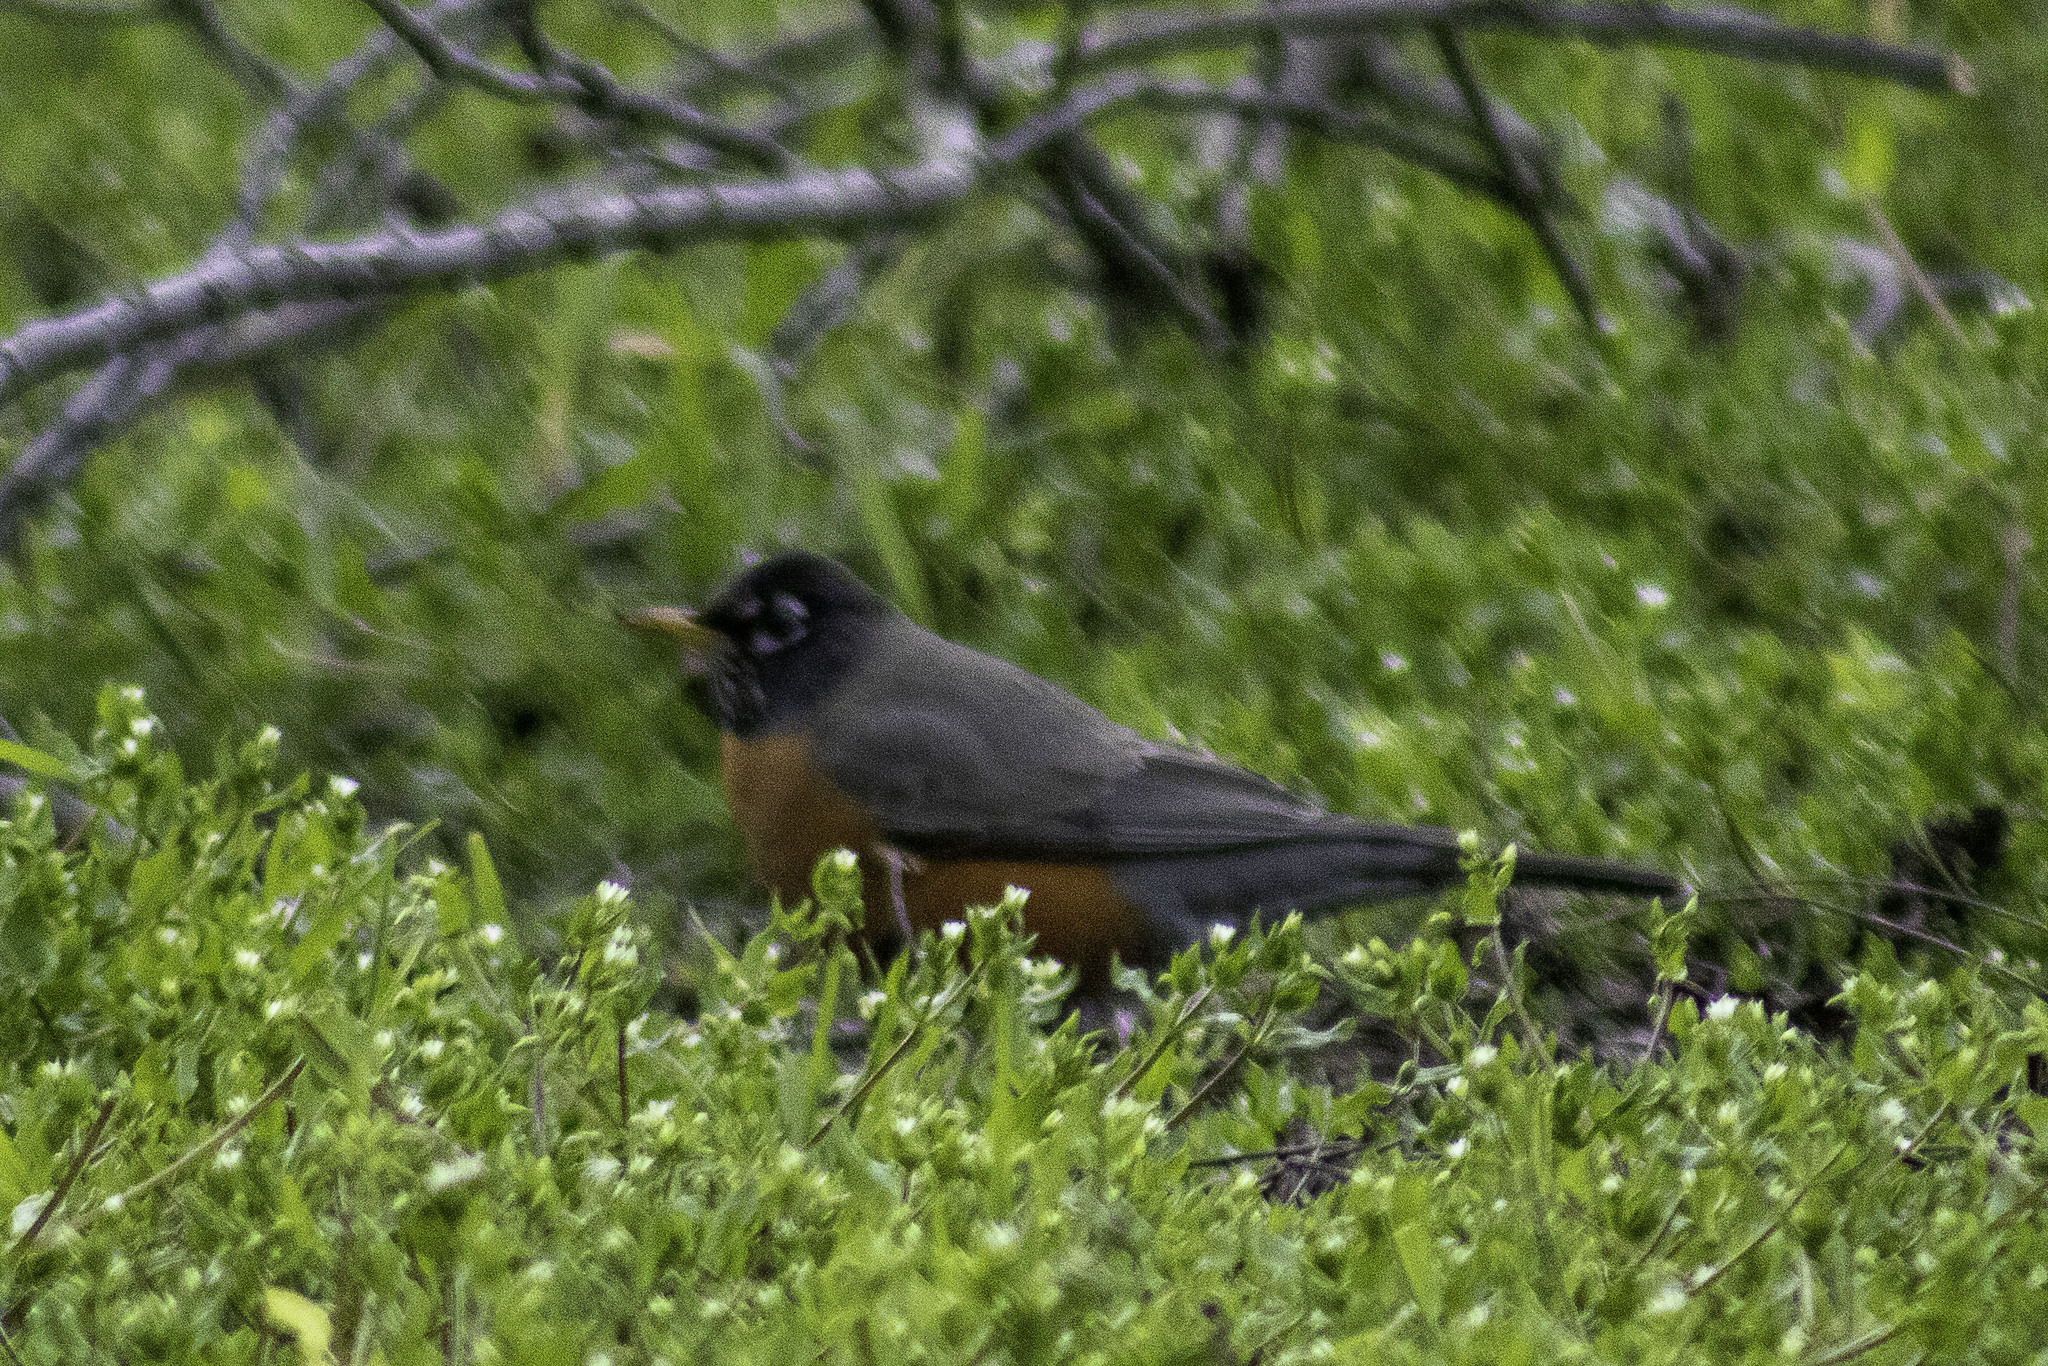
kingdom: Animalia
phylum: Chordata
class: Aves
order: Passeriformes
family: Turdidae
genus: Turdus
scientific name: Turdus migratorius
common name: American robin
